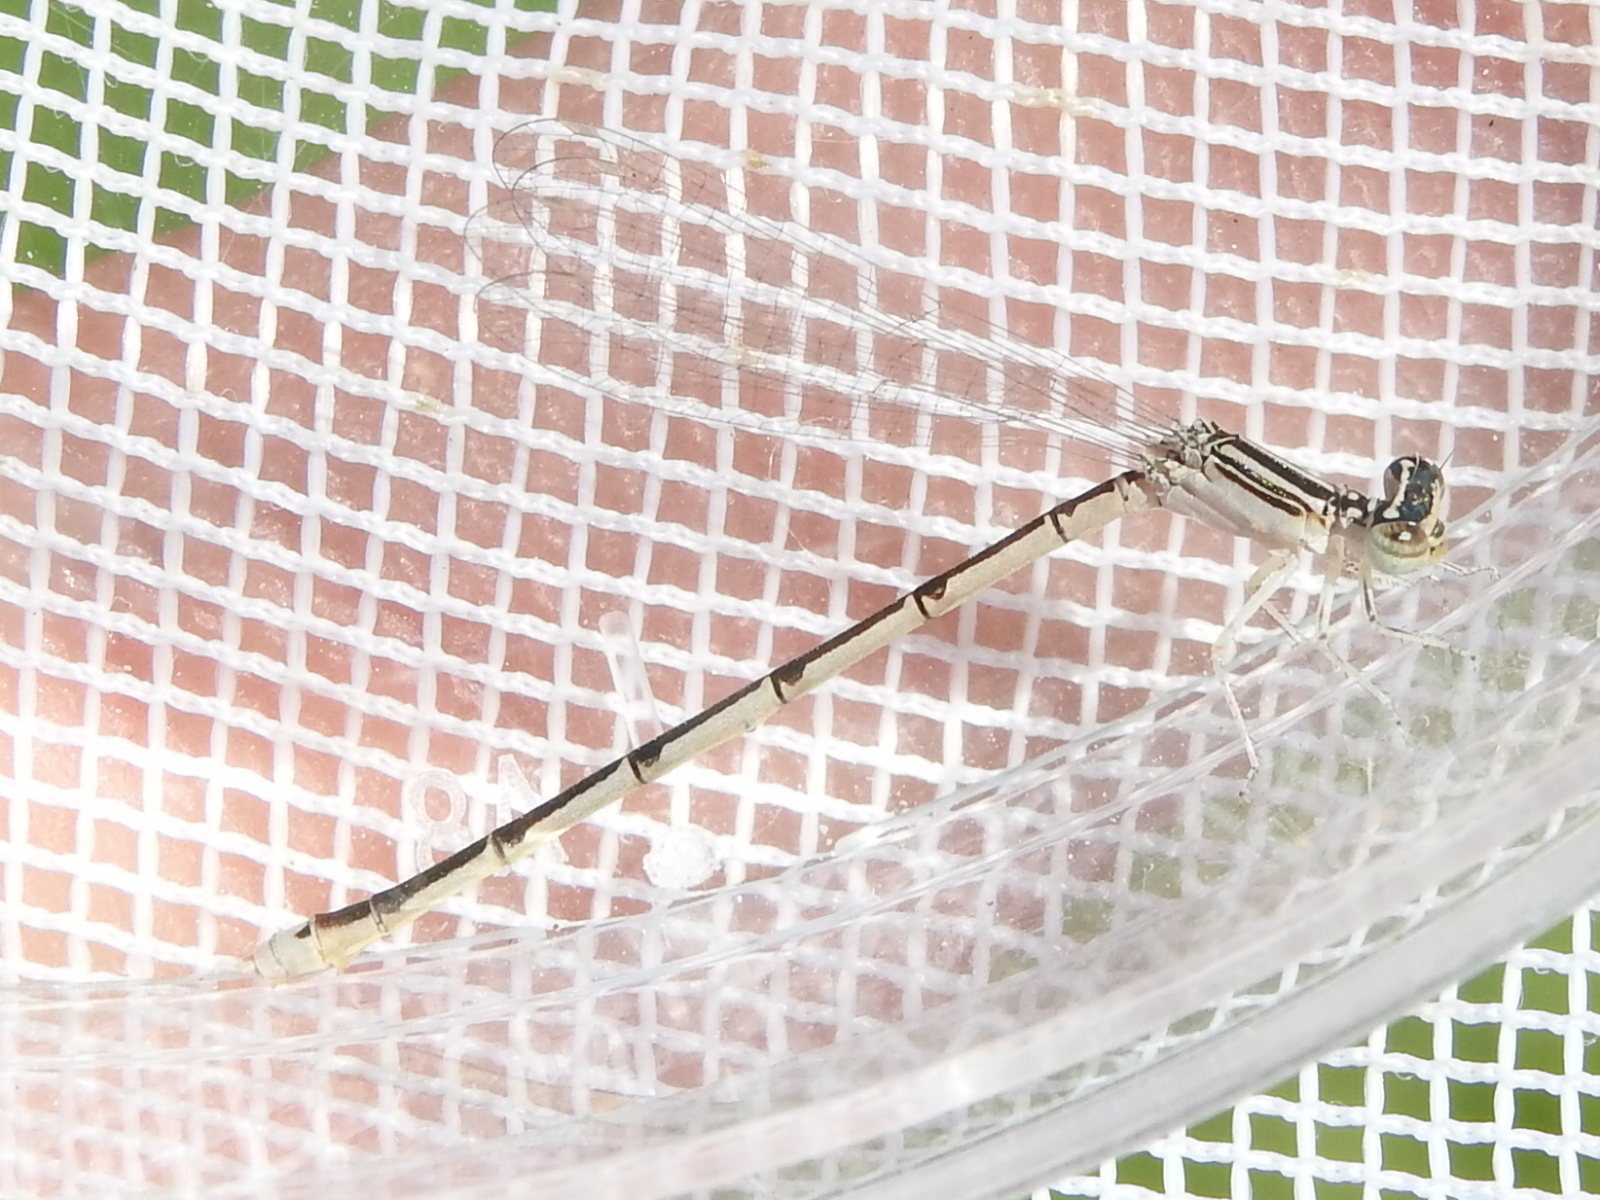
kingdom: Animalia
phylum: Arthropoda
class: Insecta
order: Odonata
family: Coenagrionidae
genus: Enallagma
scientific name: Enallagma basidens
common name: Double-striped bluet
